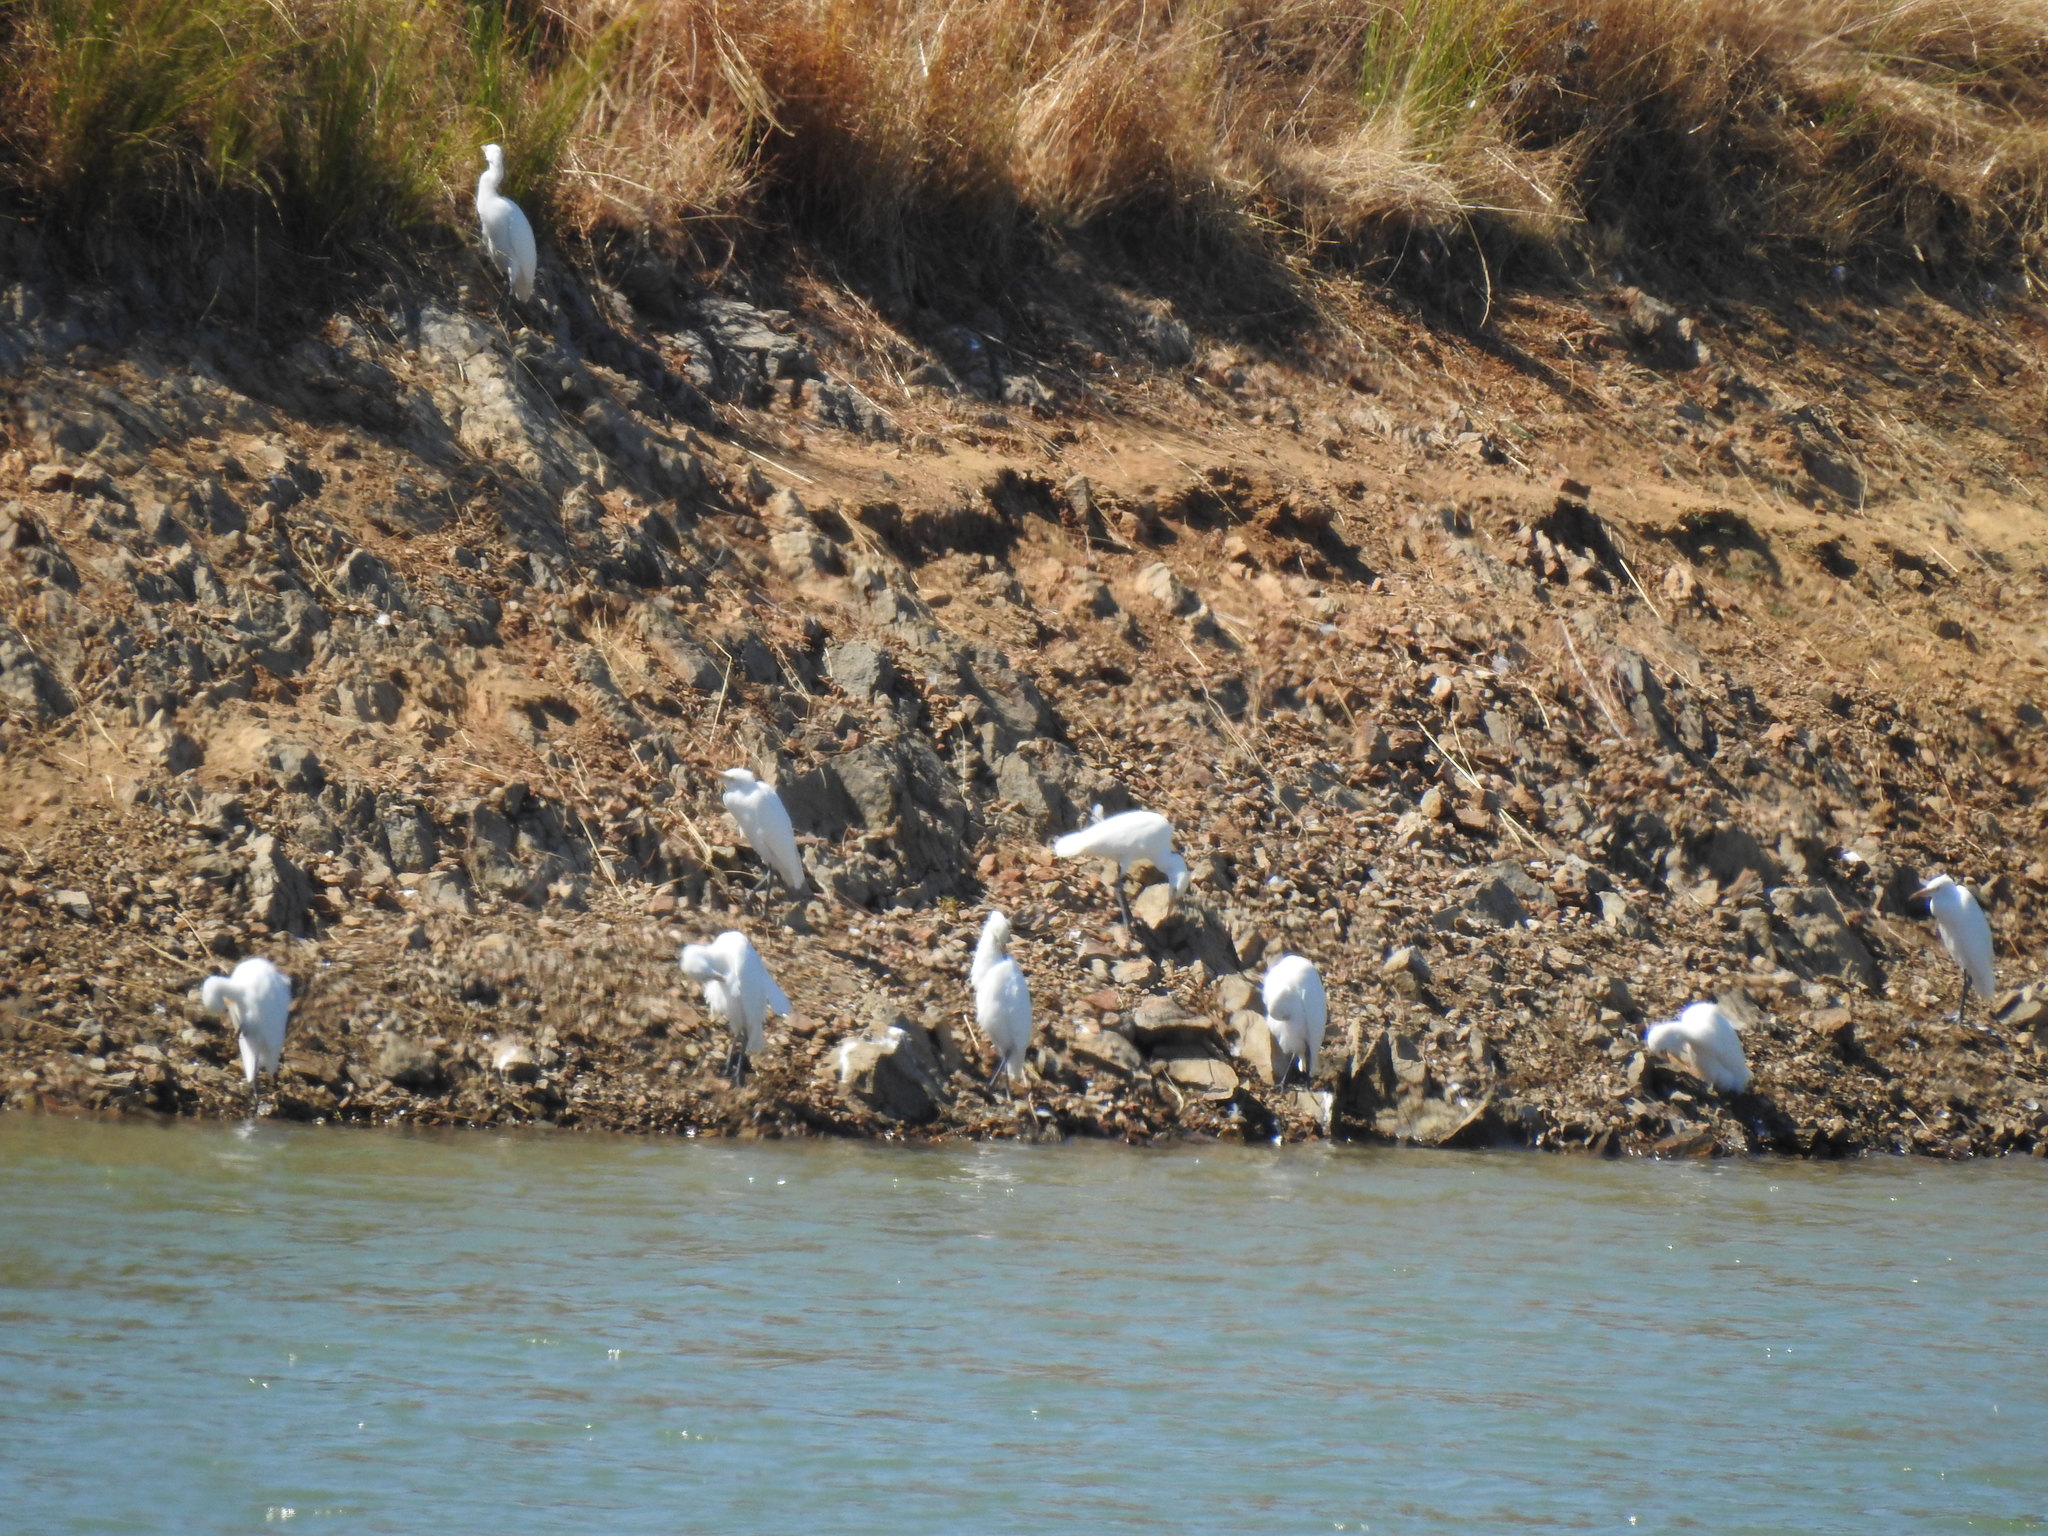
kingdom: Animalia
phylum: Chordata
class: Aves
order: Pelecaniformes
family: Ardeidae
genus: Bubulcus
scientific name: Bubulcus ibis
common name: Cattle egret
